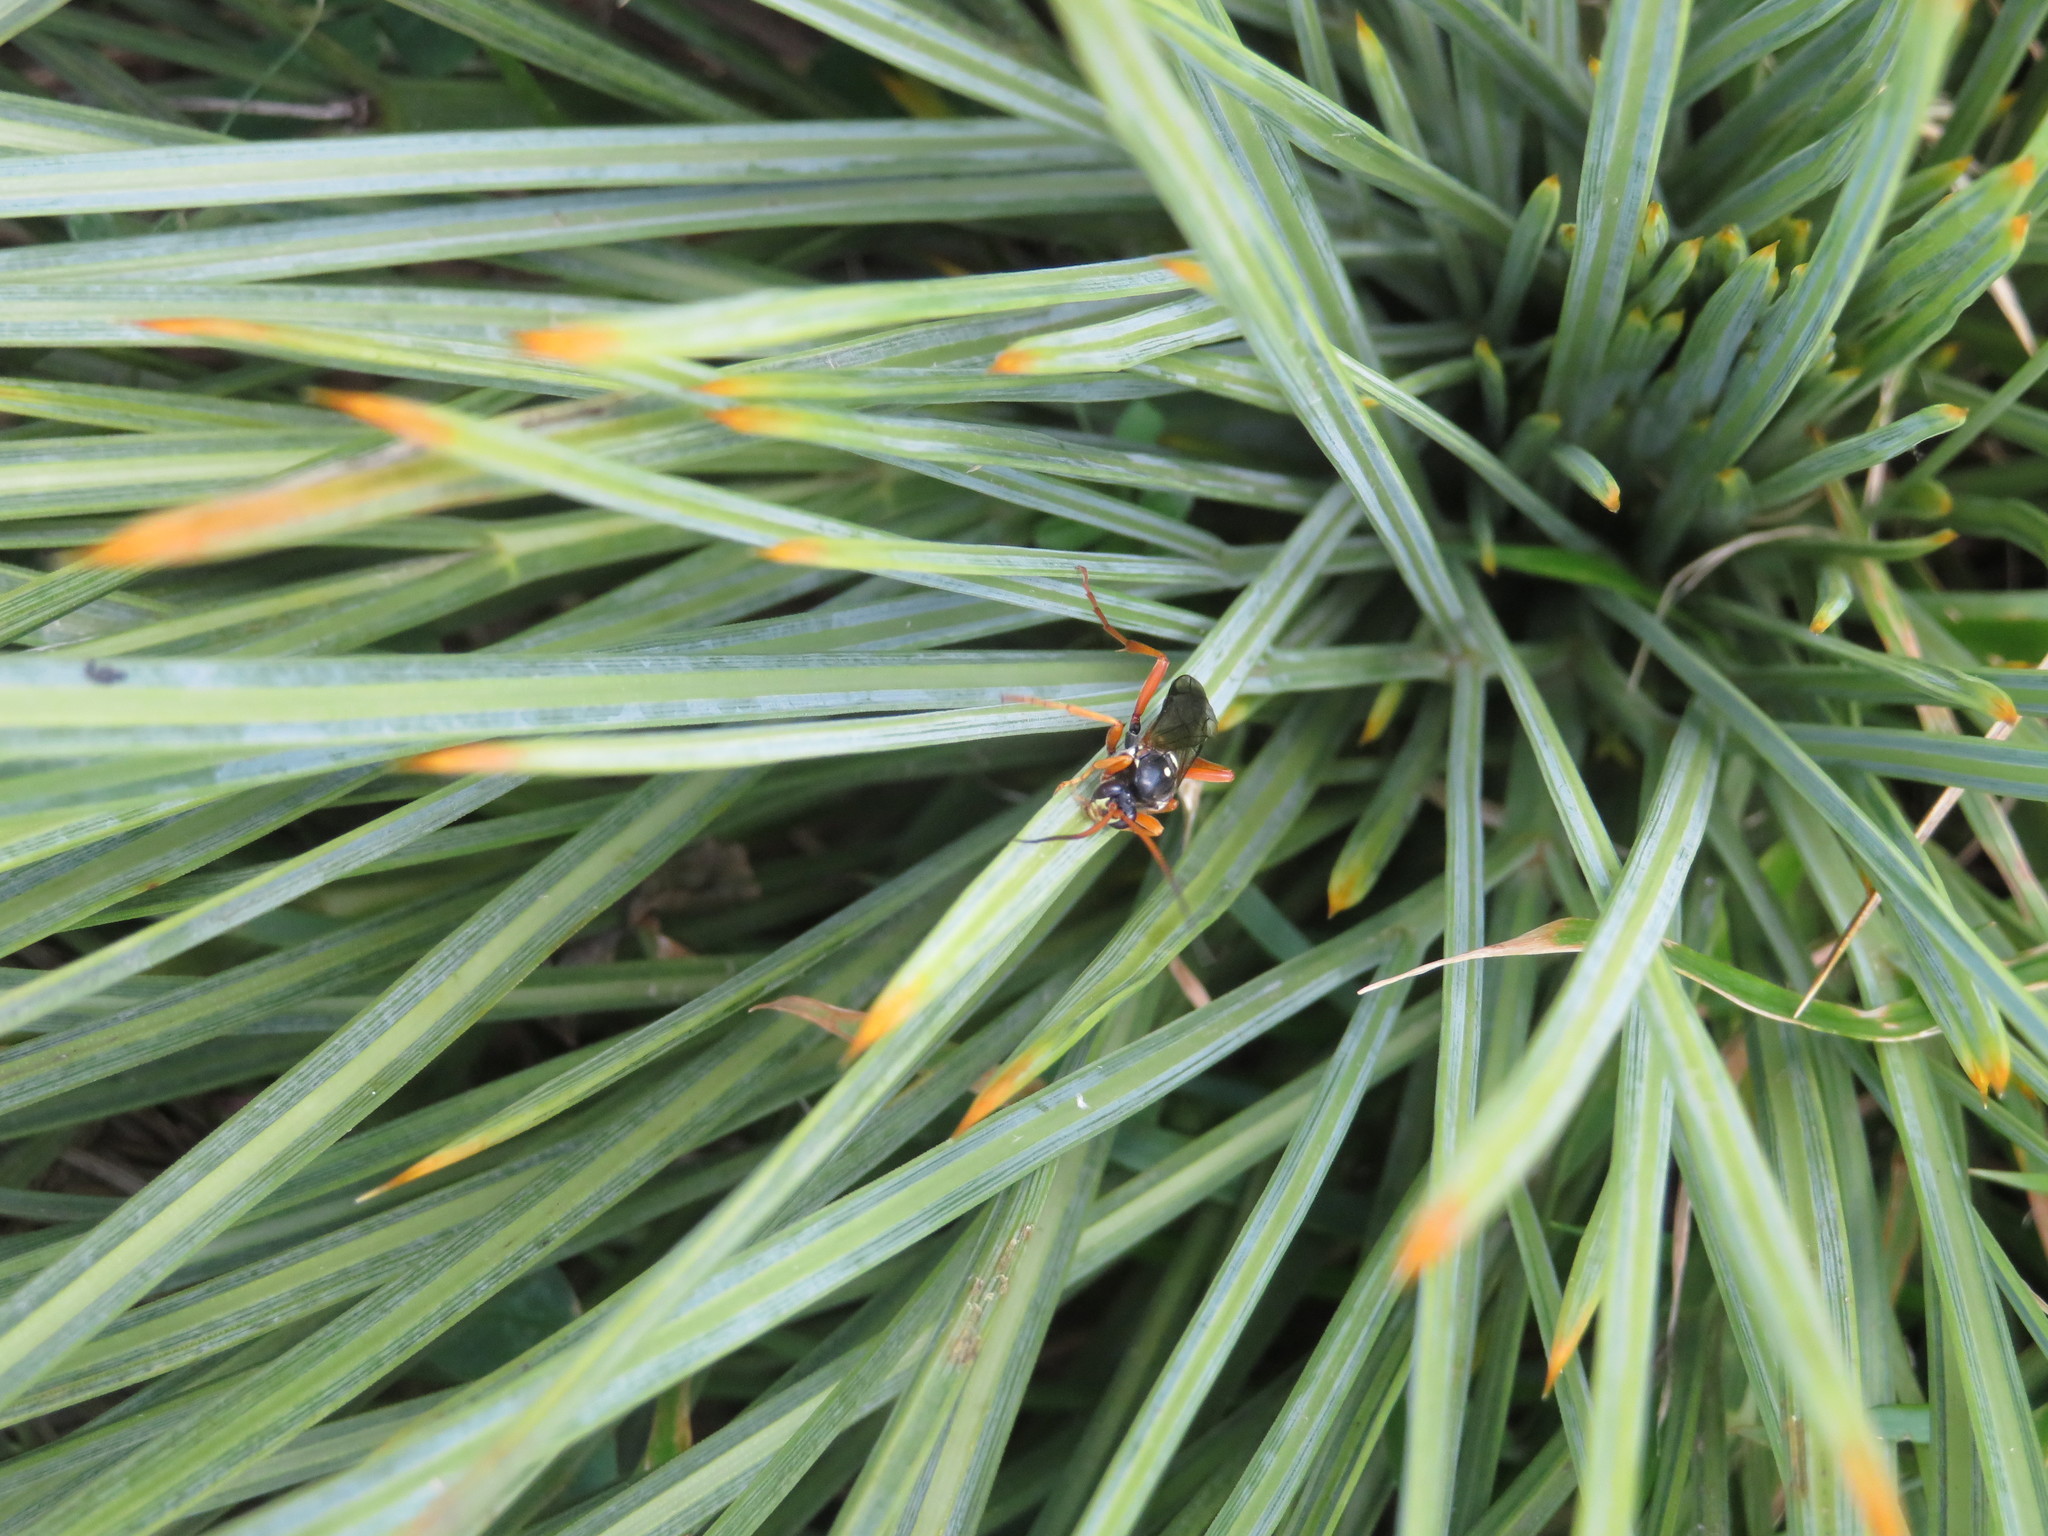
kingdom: Animalia
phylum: Arthropoda
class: Insecta
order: Hymenoptera
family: Ichneumonidae
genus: Eutanyacra
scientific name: Eutanyacra licitatoria
